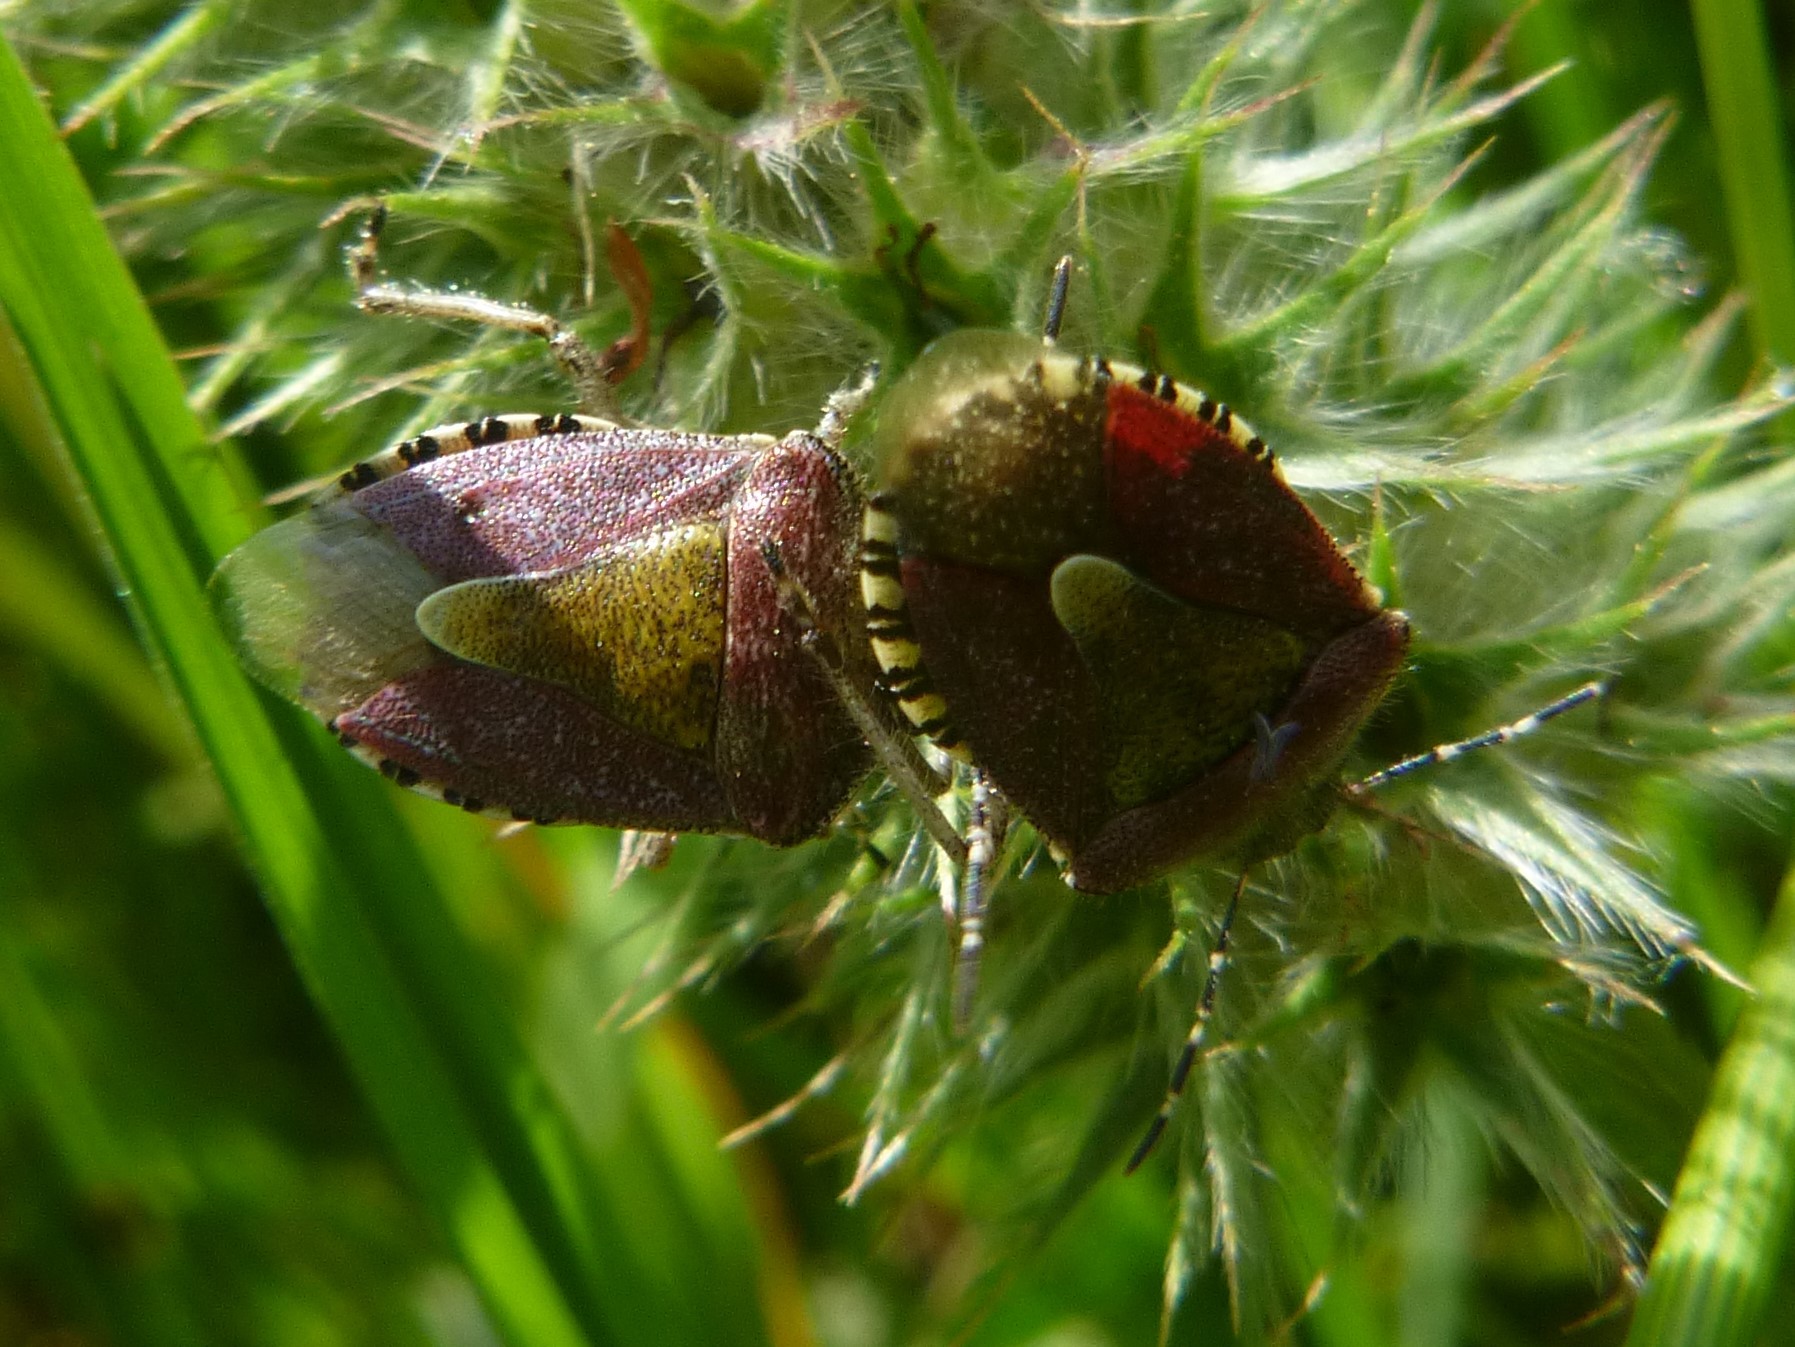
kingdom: Animalia
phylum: Arthropoda
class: Insecta
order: Hemiptera
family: Pentatomidae
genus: Dolycoris
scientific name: Dolycoris baccarum
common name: Sloe bug
